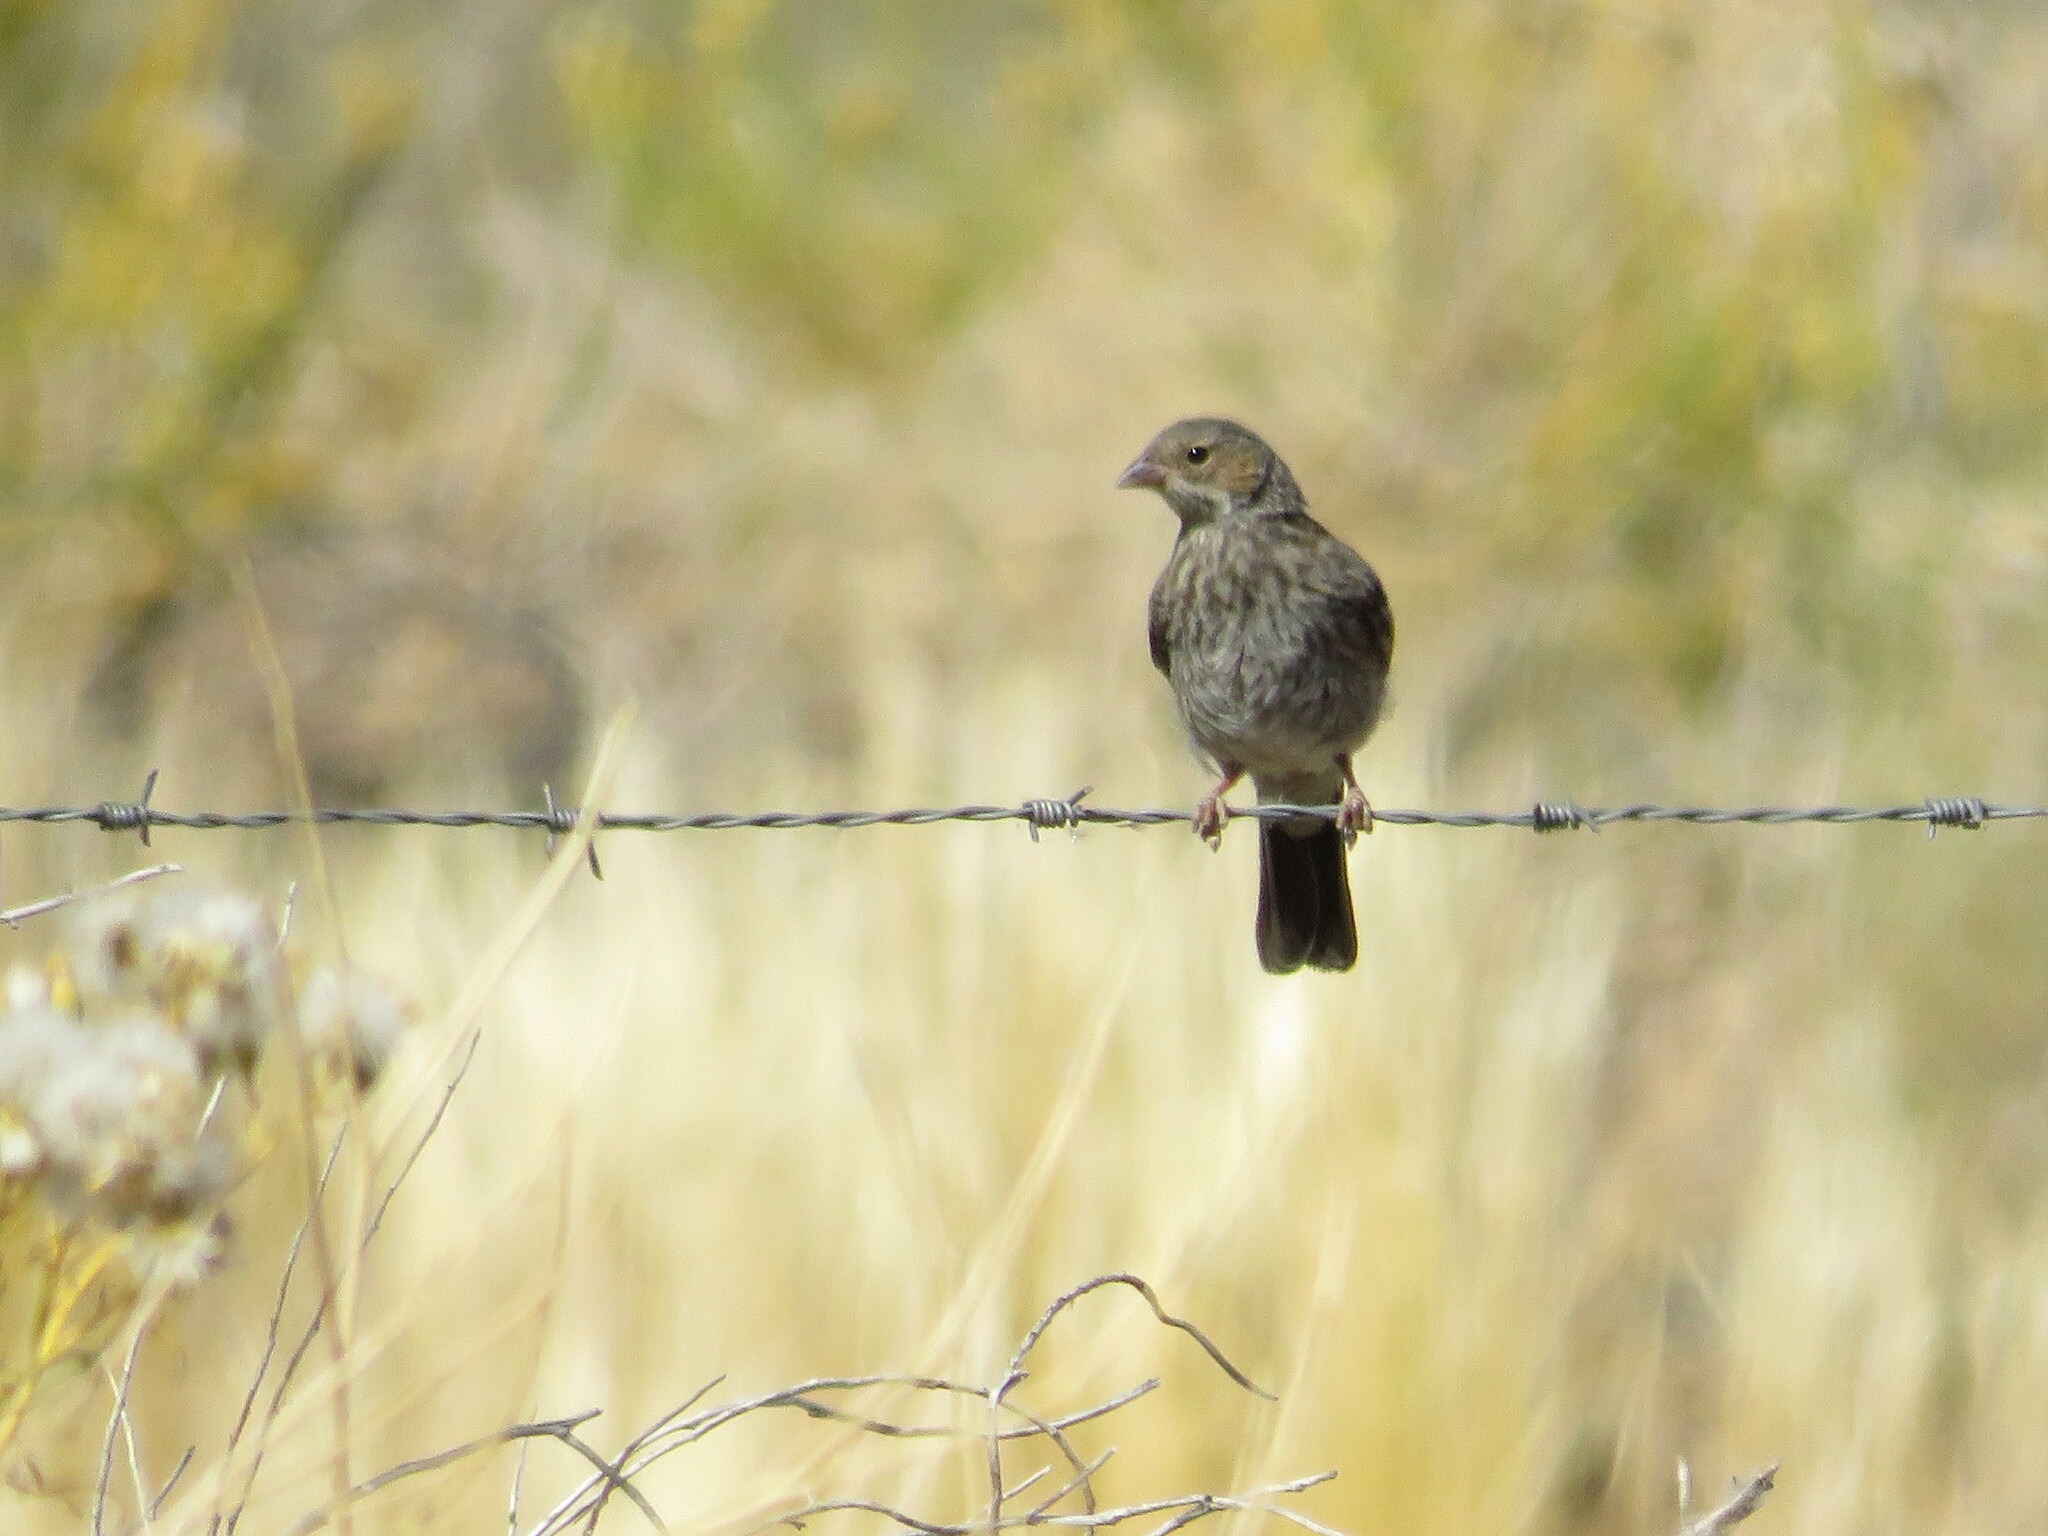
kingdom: Animalia
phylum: Chordata
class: Aves
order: Passeriformes
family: Thraupidae
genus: Rhopospina
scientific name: Rhopospina fruticeti
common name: Mourning sierra finch
